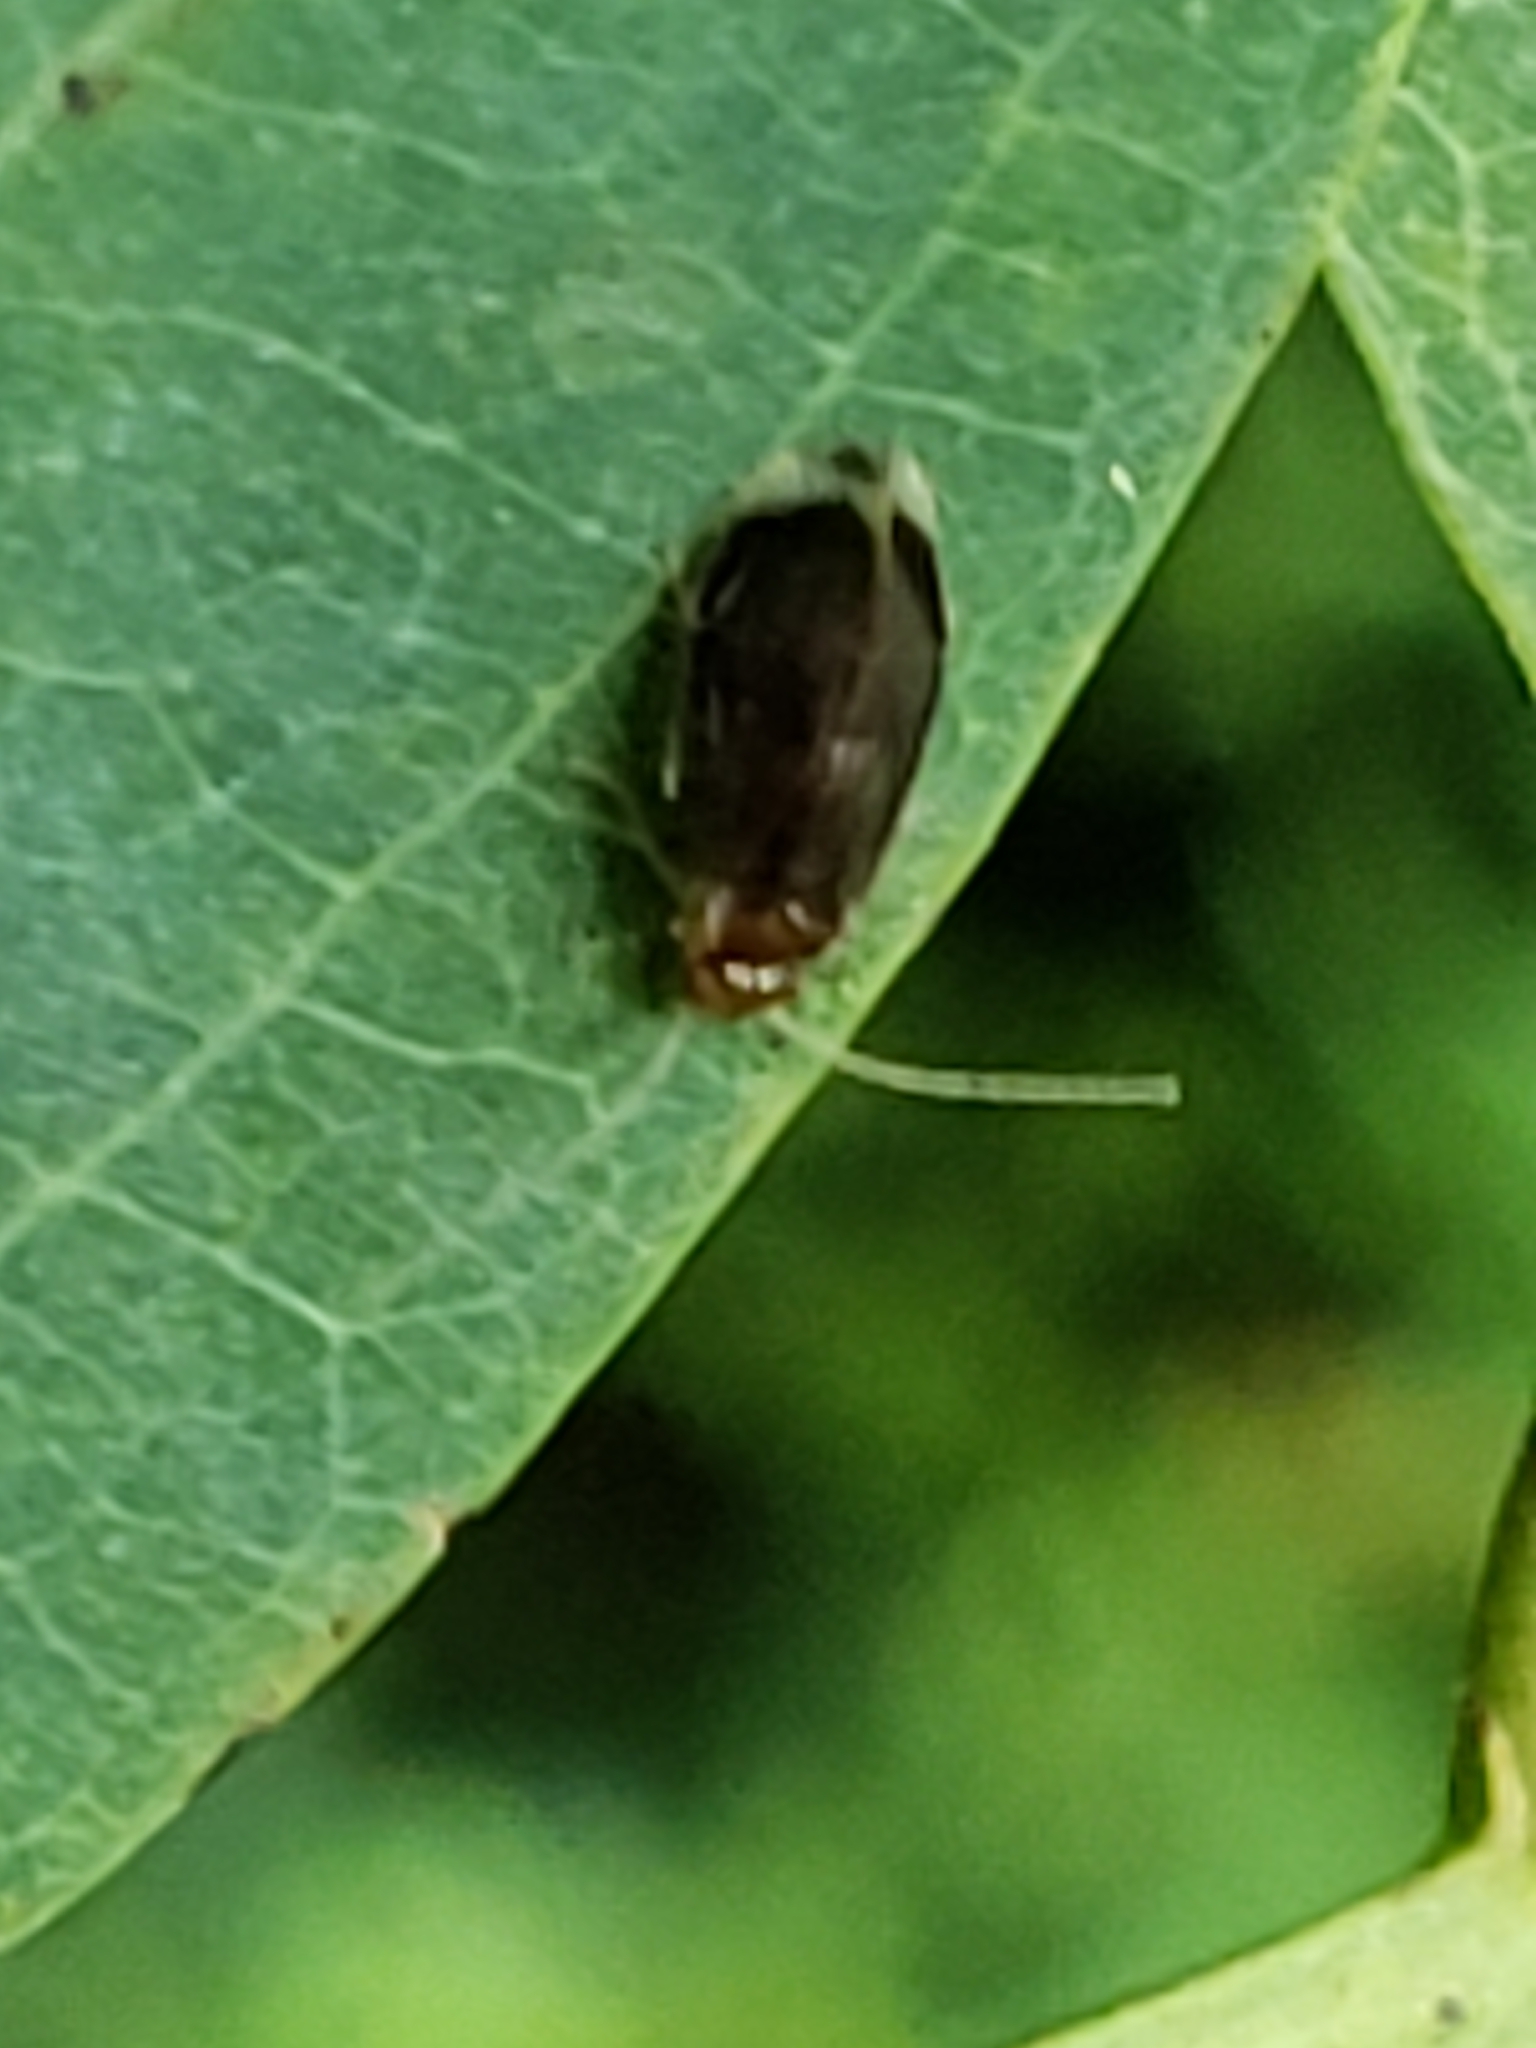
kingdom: Animalia
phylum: Arthropoda
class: Insecta
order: Psocodea
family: Amphipsocidae
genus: Polypsocus
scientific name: Polypsocus corruptus
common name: Corrupt barklouse
